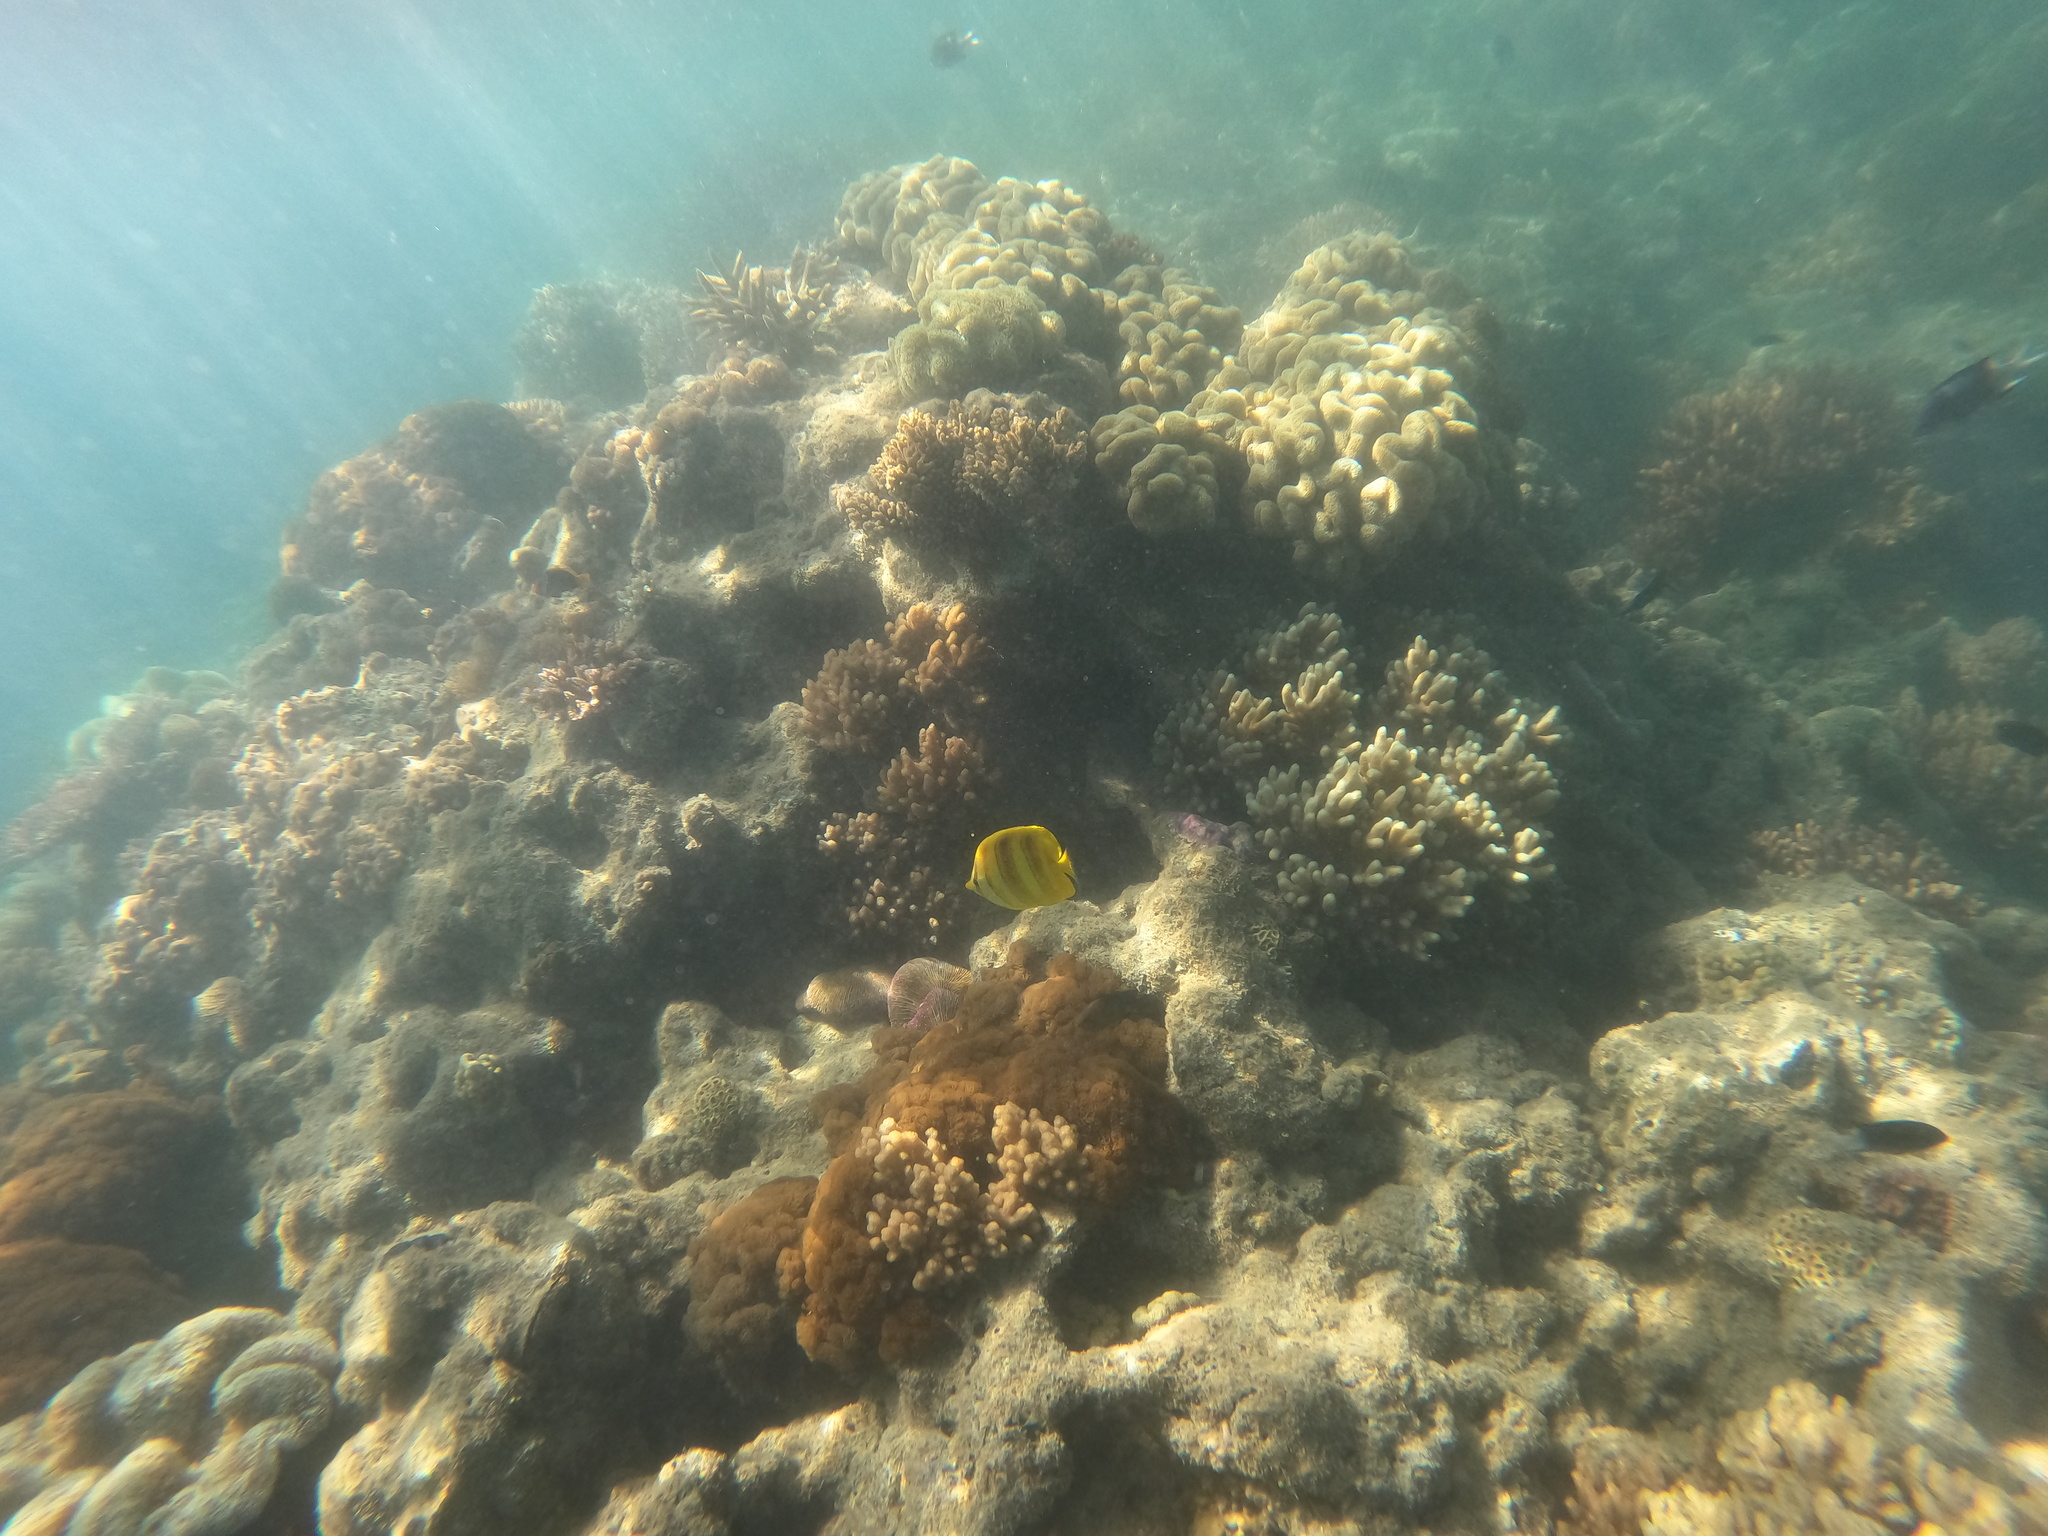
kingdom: Animalia
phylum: Chordata
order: Perciformes
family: Chaetodontidae
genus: Chaetodon
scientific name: Chaetodon rainfordi
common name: Rainford's butterflyfish
